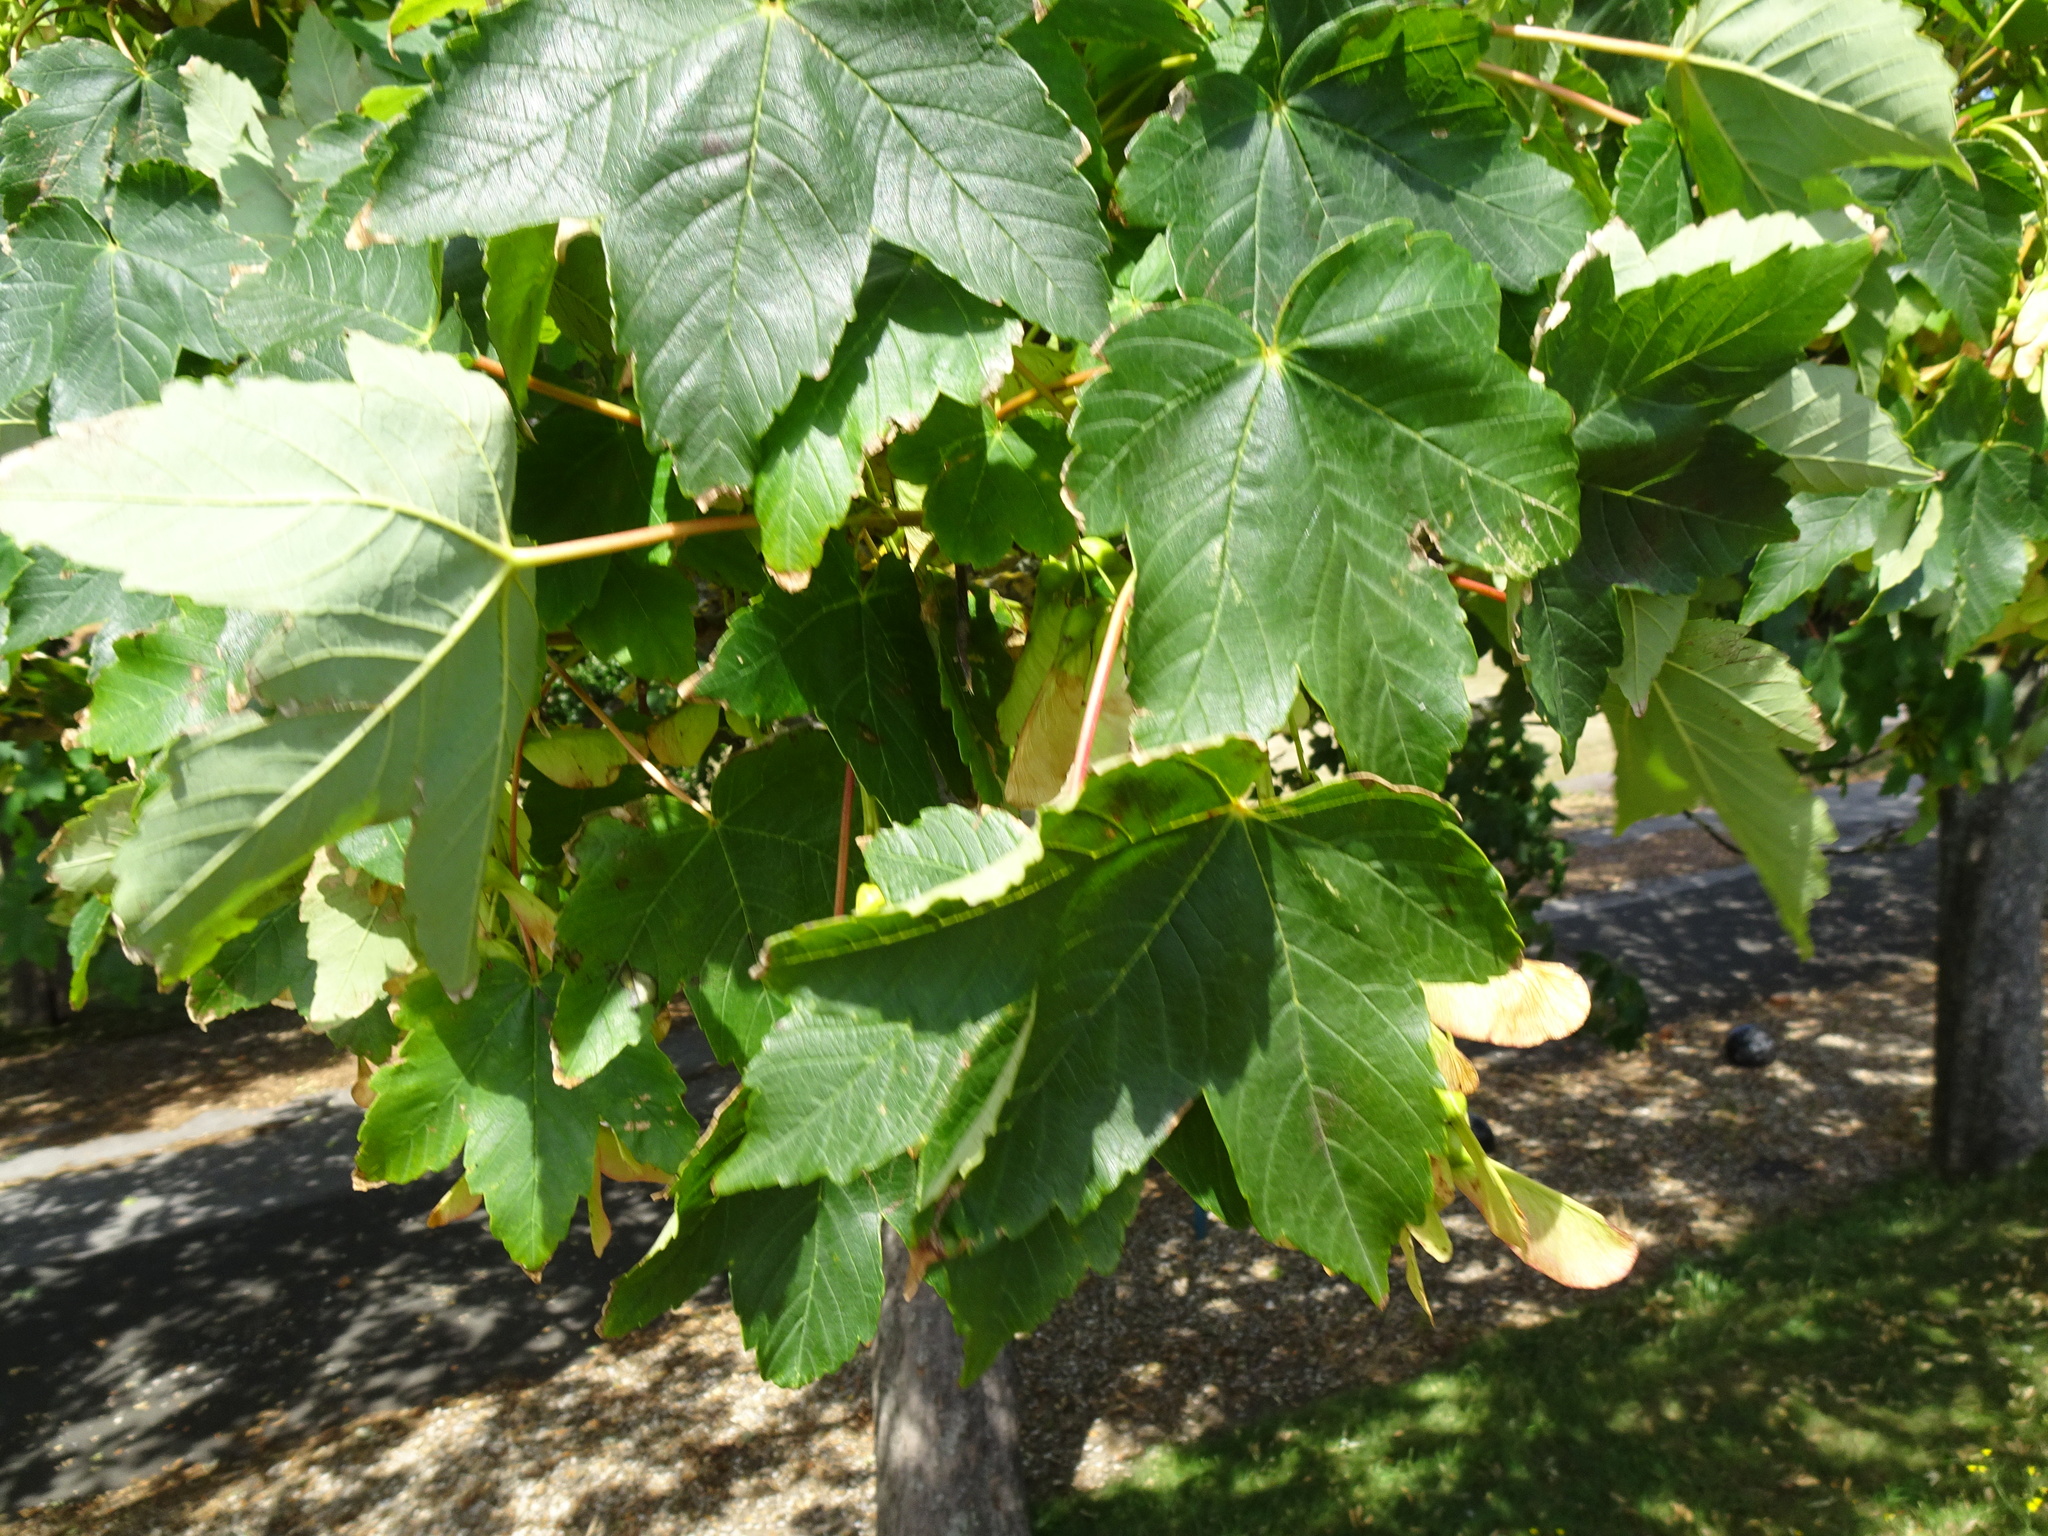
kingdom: Plantae
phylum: Tracheophyta
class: Magnoliopsida
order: Sapindales
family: Sapindaceae
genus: Acer
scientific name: Acer pseudoplatanus
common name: Sycamore
